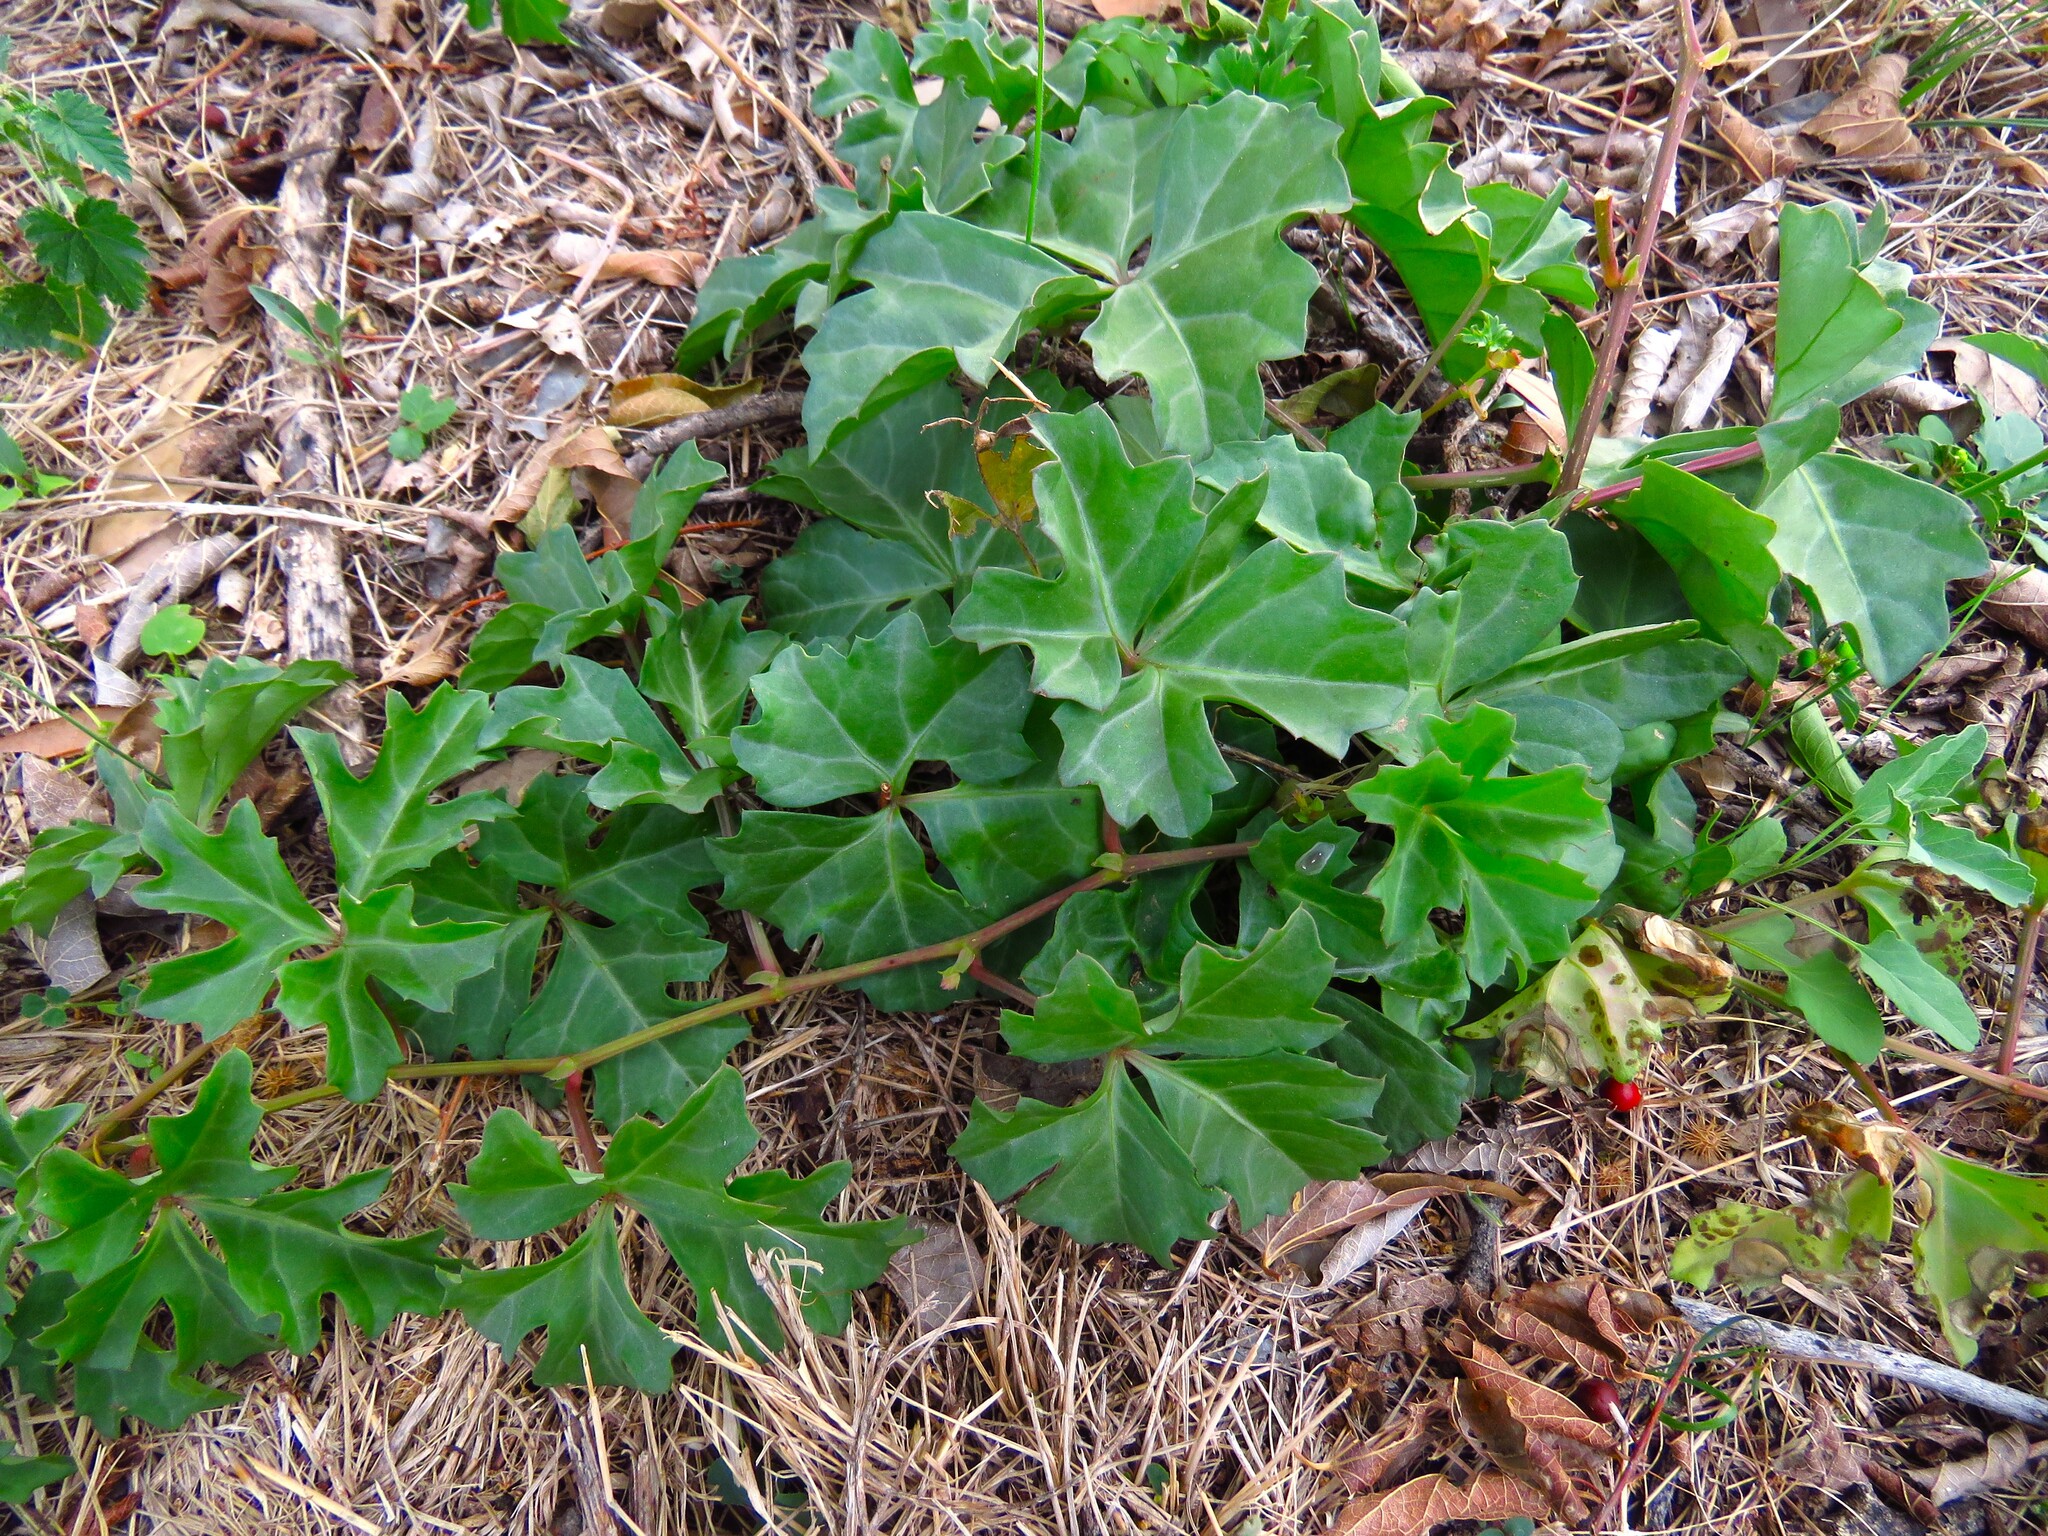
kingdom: Plantae
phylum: Tracheophyta
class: Magnoliopsida
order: Vitales
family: Vitaceae
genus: Cissus
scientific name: Cissus trifoliata
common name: Vine-sorrel
